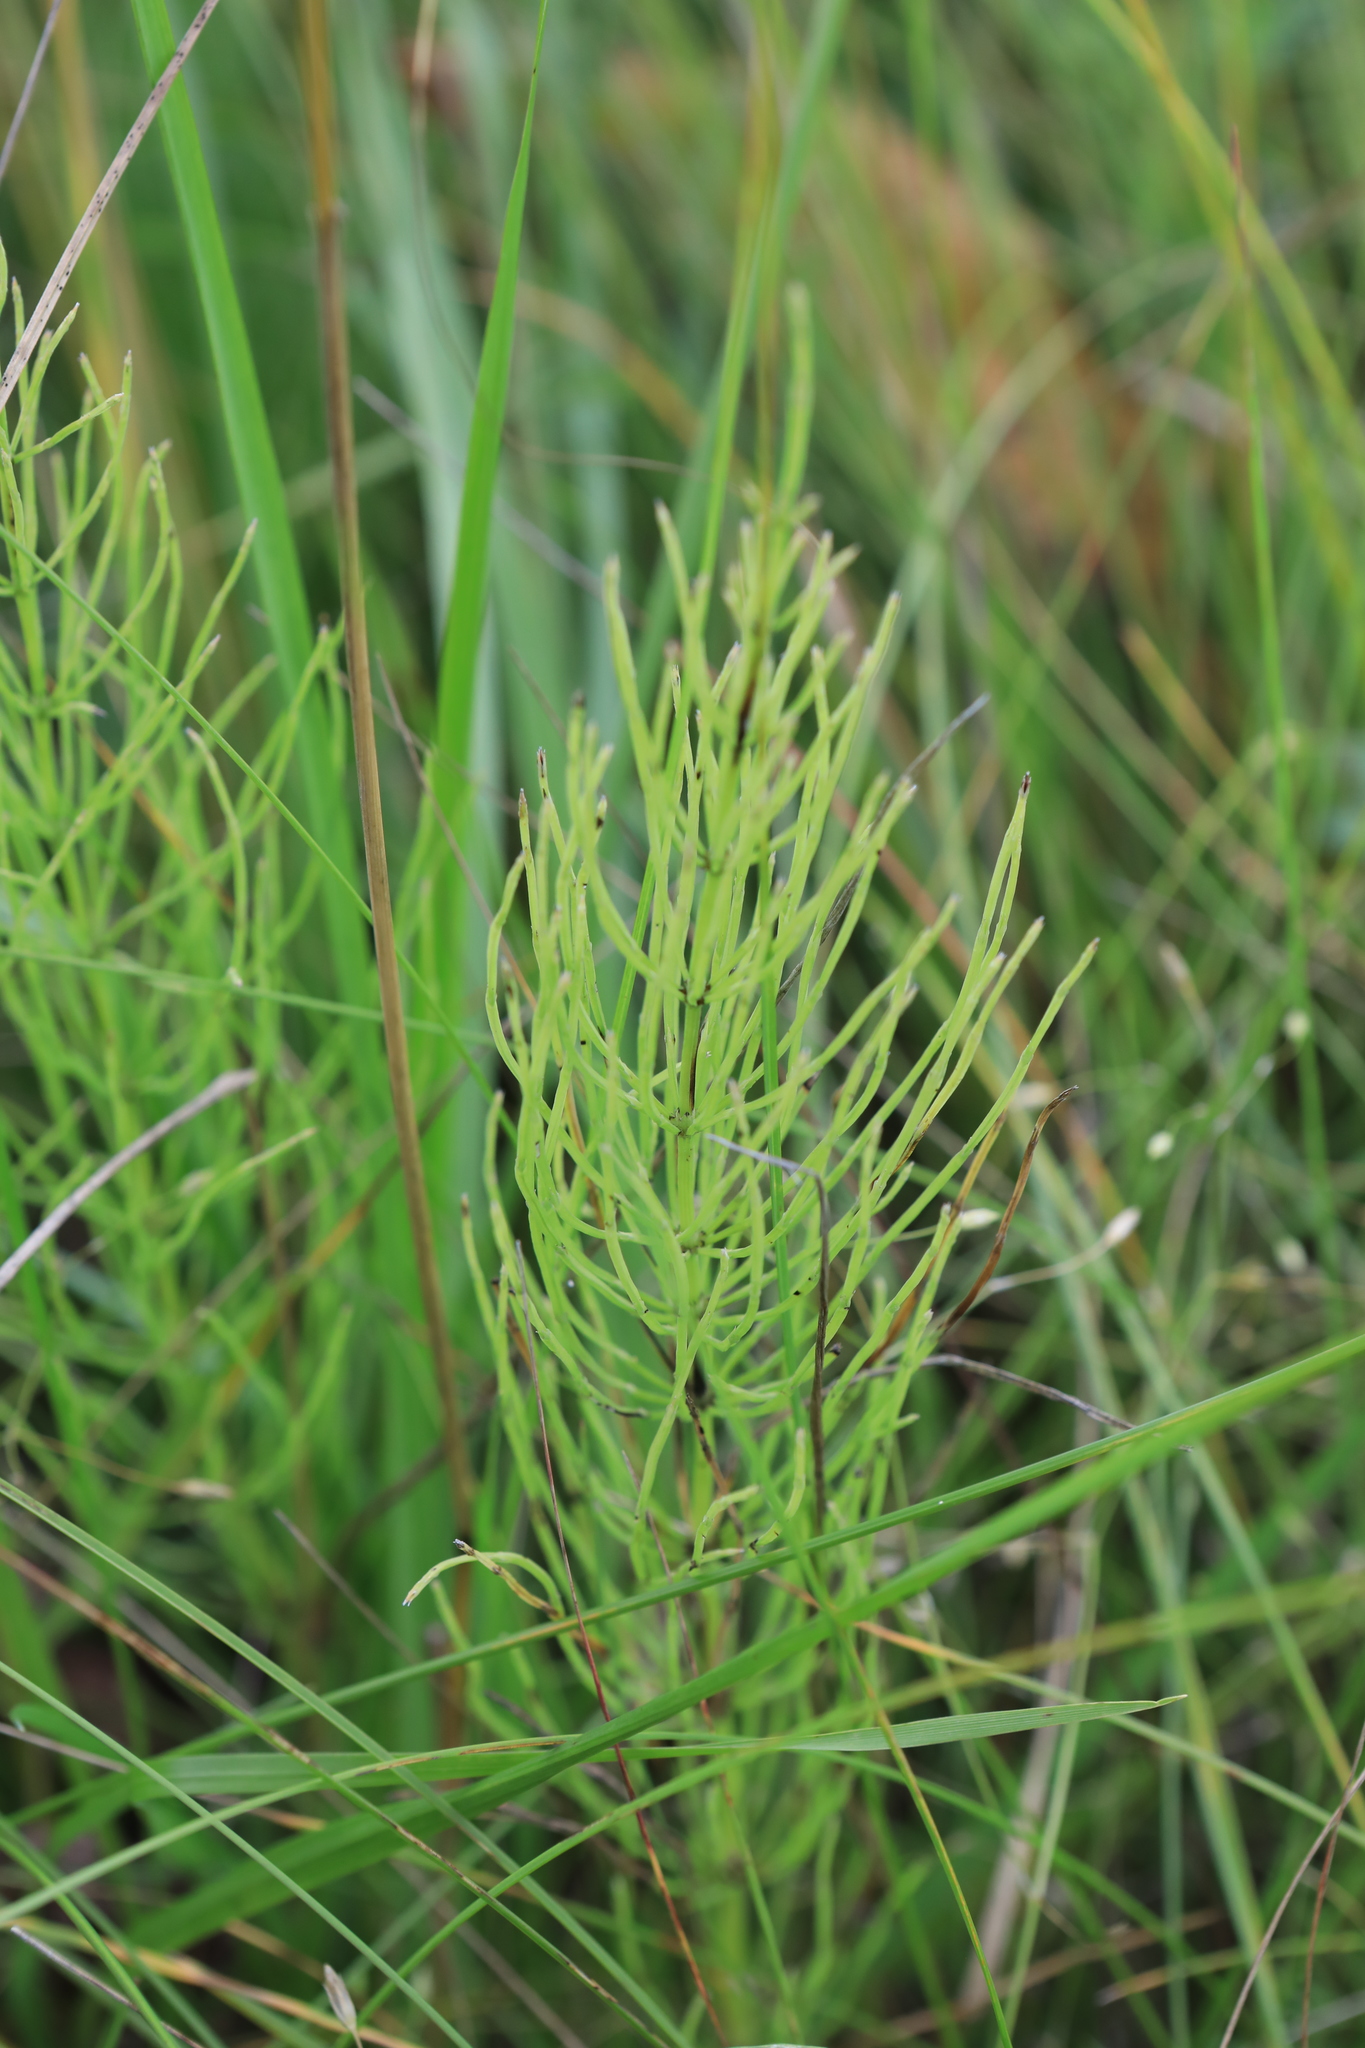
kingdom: Plantae
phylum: Tracheophyta
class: Polypodiopsida
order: Equisetales
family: Equisetaceae
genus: Equisetum
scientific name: Equisetum arvense
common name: Field horsetail
